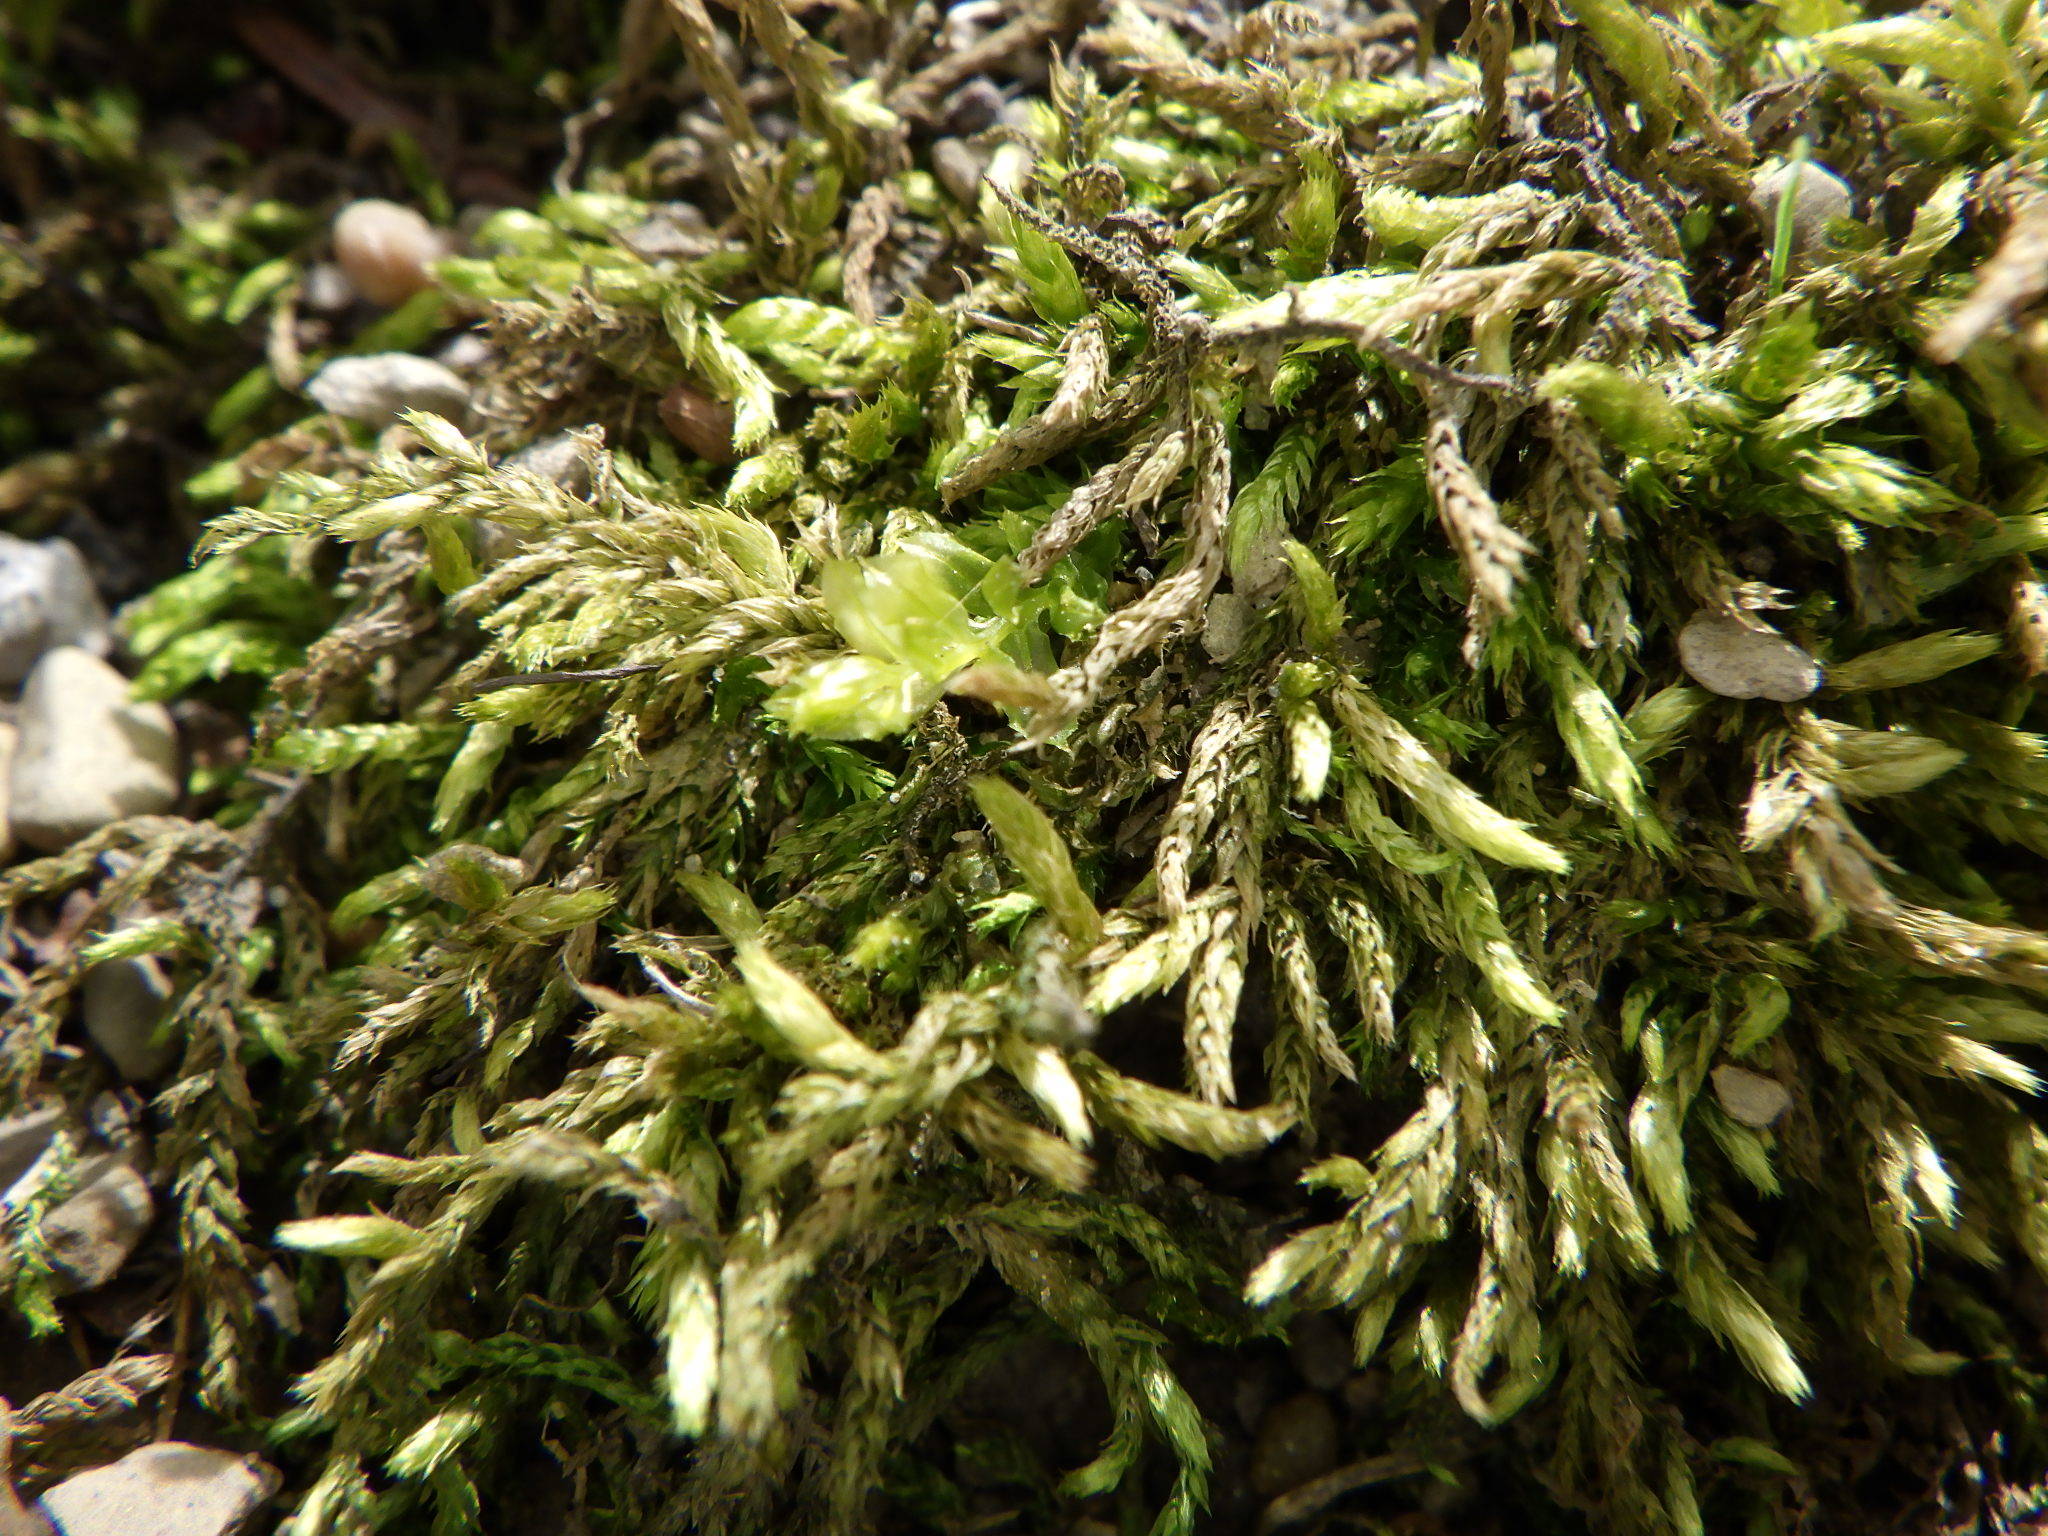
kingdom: Plantae
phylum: Bryophyta
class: Bryopsida
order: Hypnales
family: Entodontaceae
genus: Entodon
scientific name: Entodon seductrix
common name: Round-stemmed entodon moss
